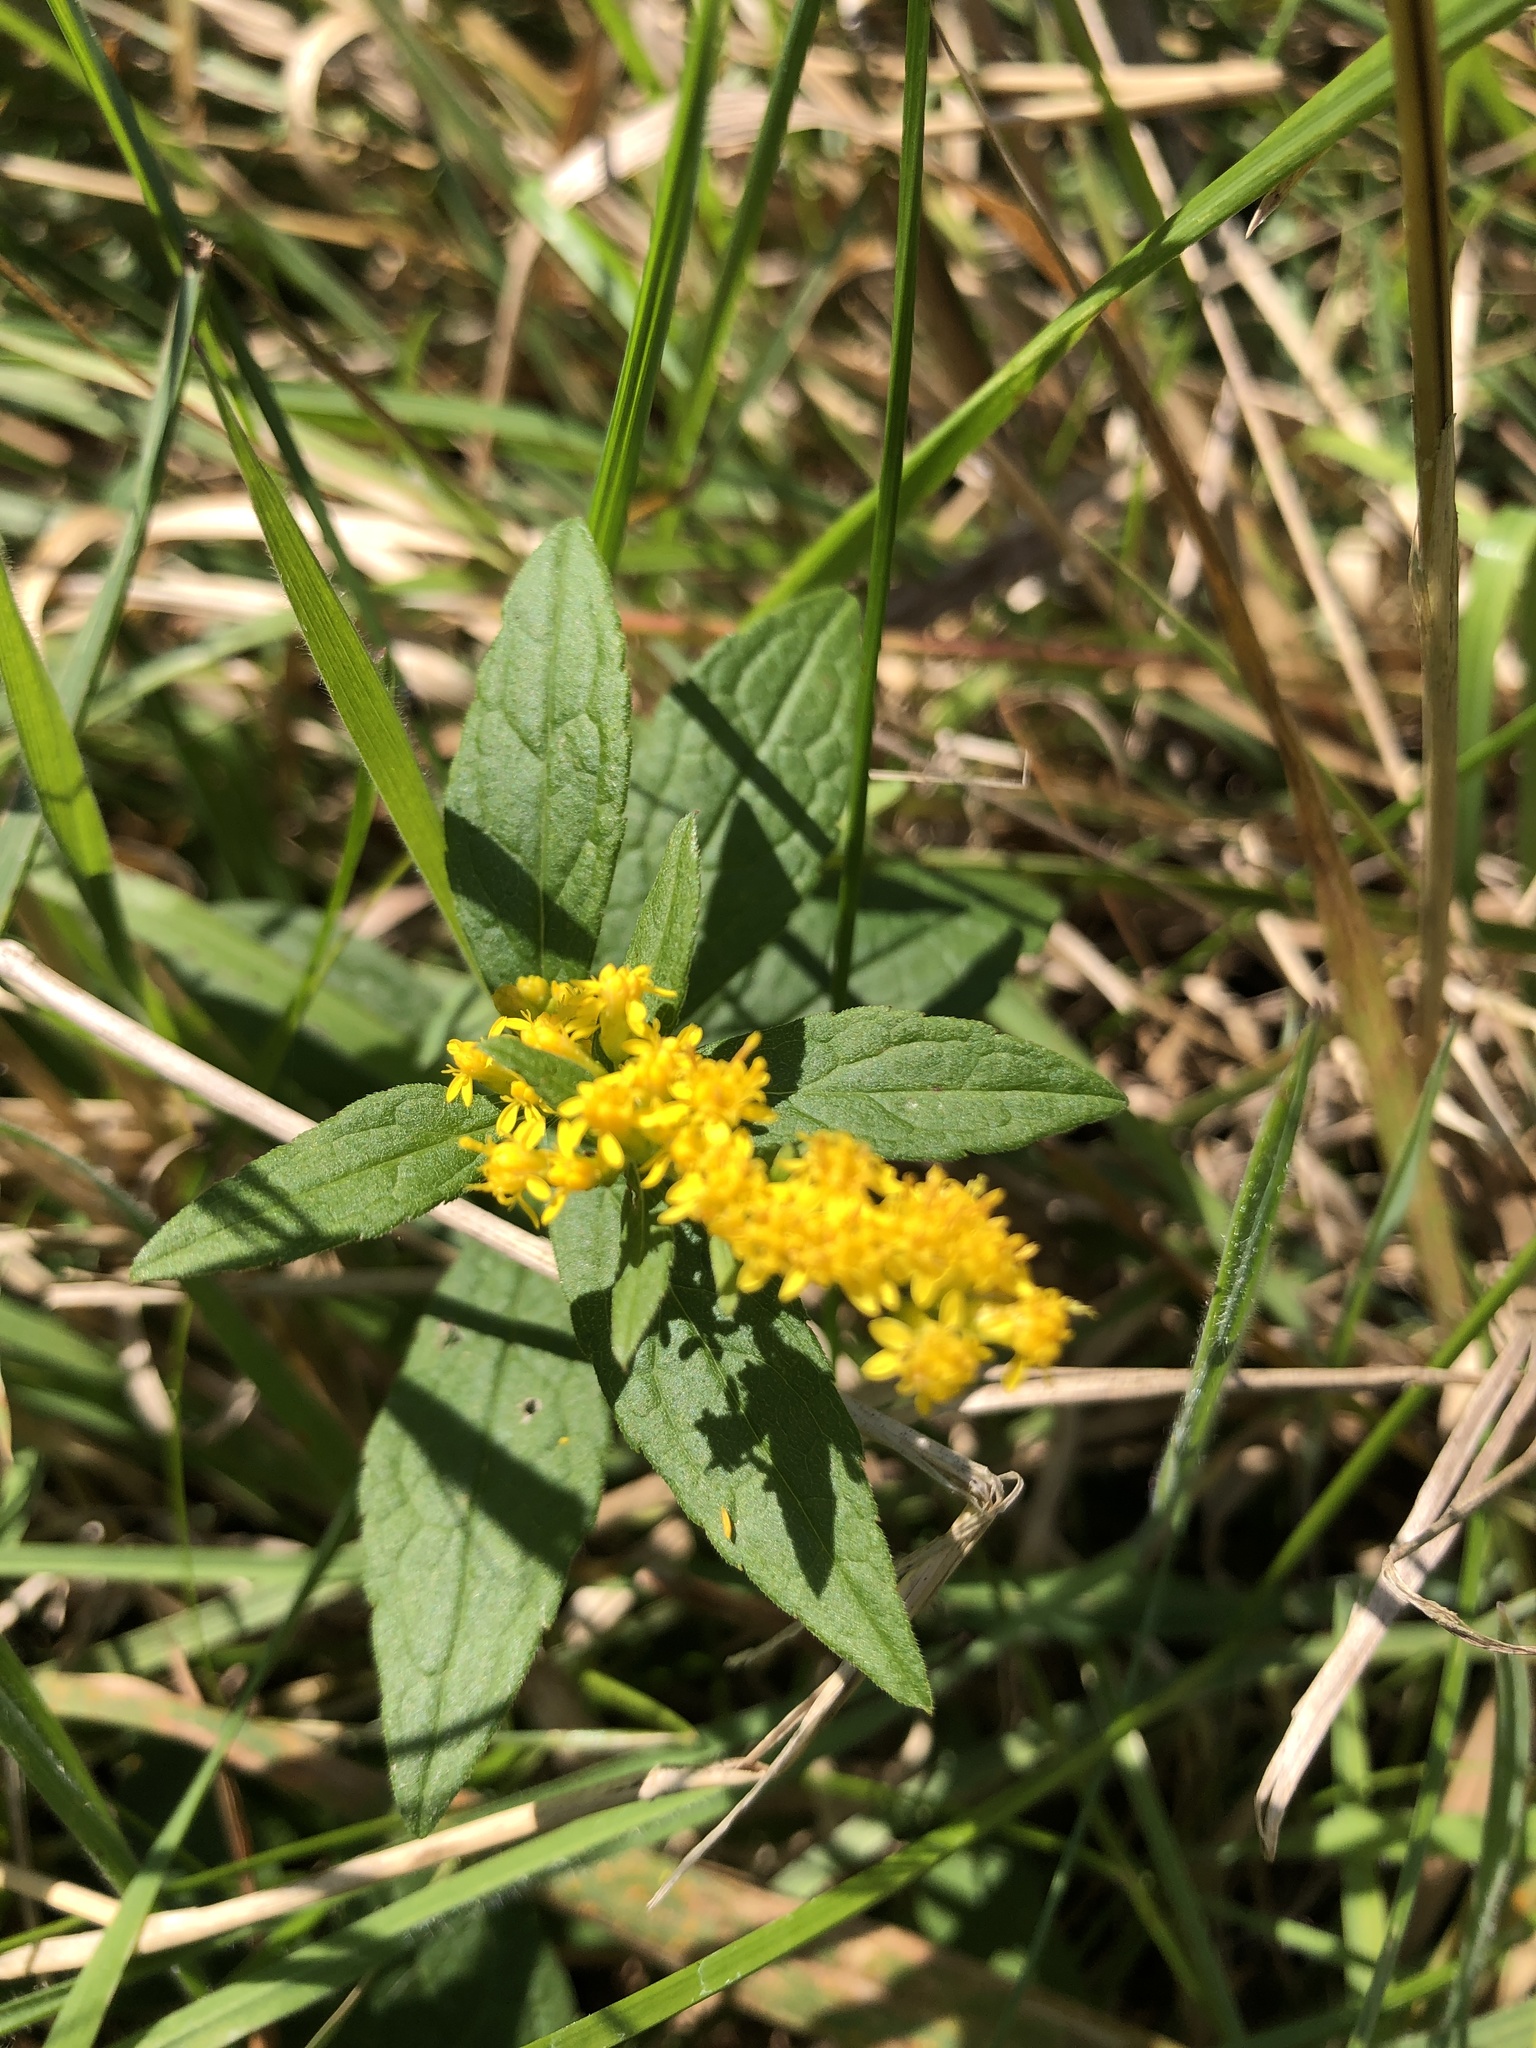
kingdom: Plantae
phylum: Tracheophyta
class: Magnoliopsida
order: Asterales
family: Asteraceae
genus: Solidago
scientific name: Solidago rugosa
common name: Rough-stemmed goldenrod
